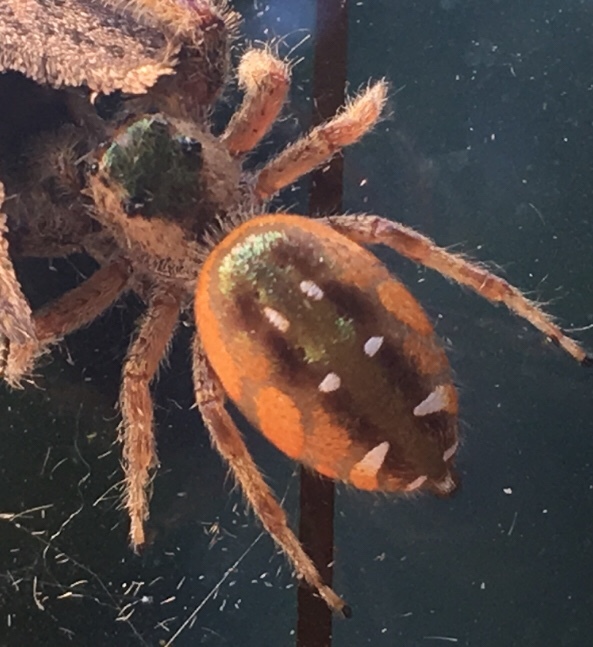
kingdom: Animalia
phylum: Arthropoda
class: Arachnida
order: Araneae
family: Salticidae
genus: Paraphidippus
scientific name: Paraphidippus aurantius
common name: Jumping spiders
